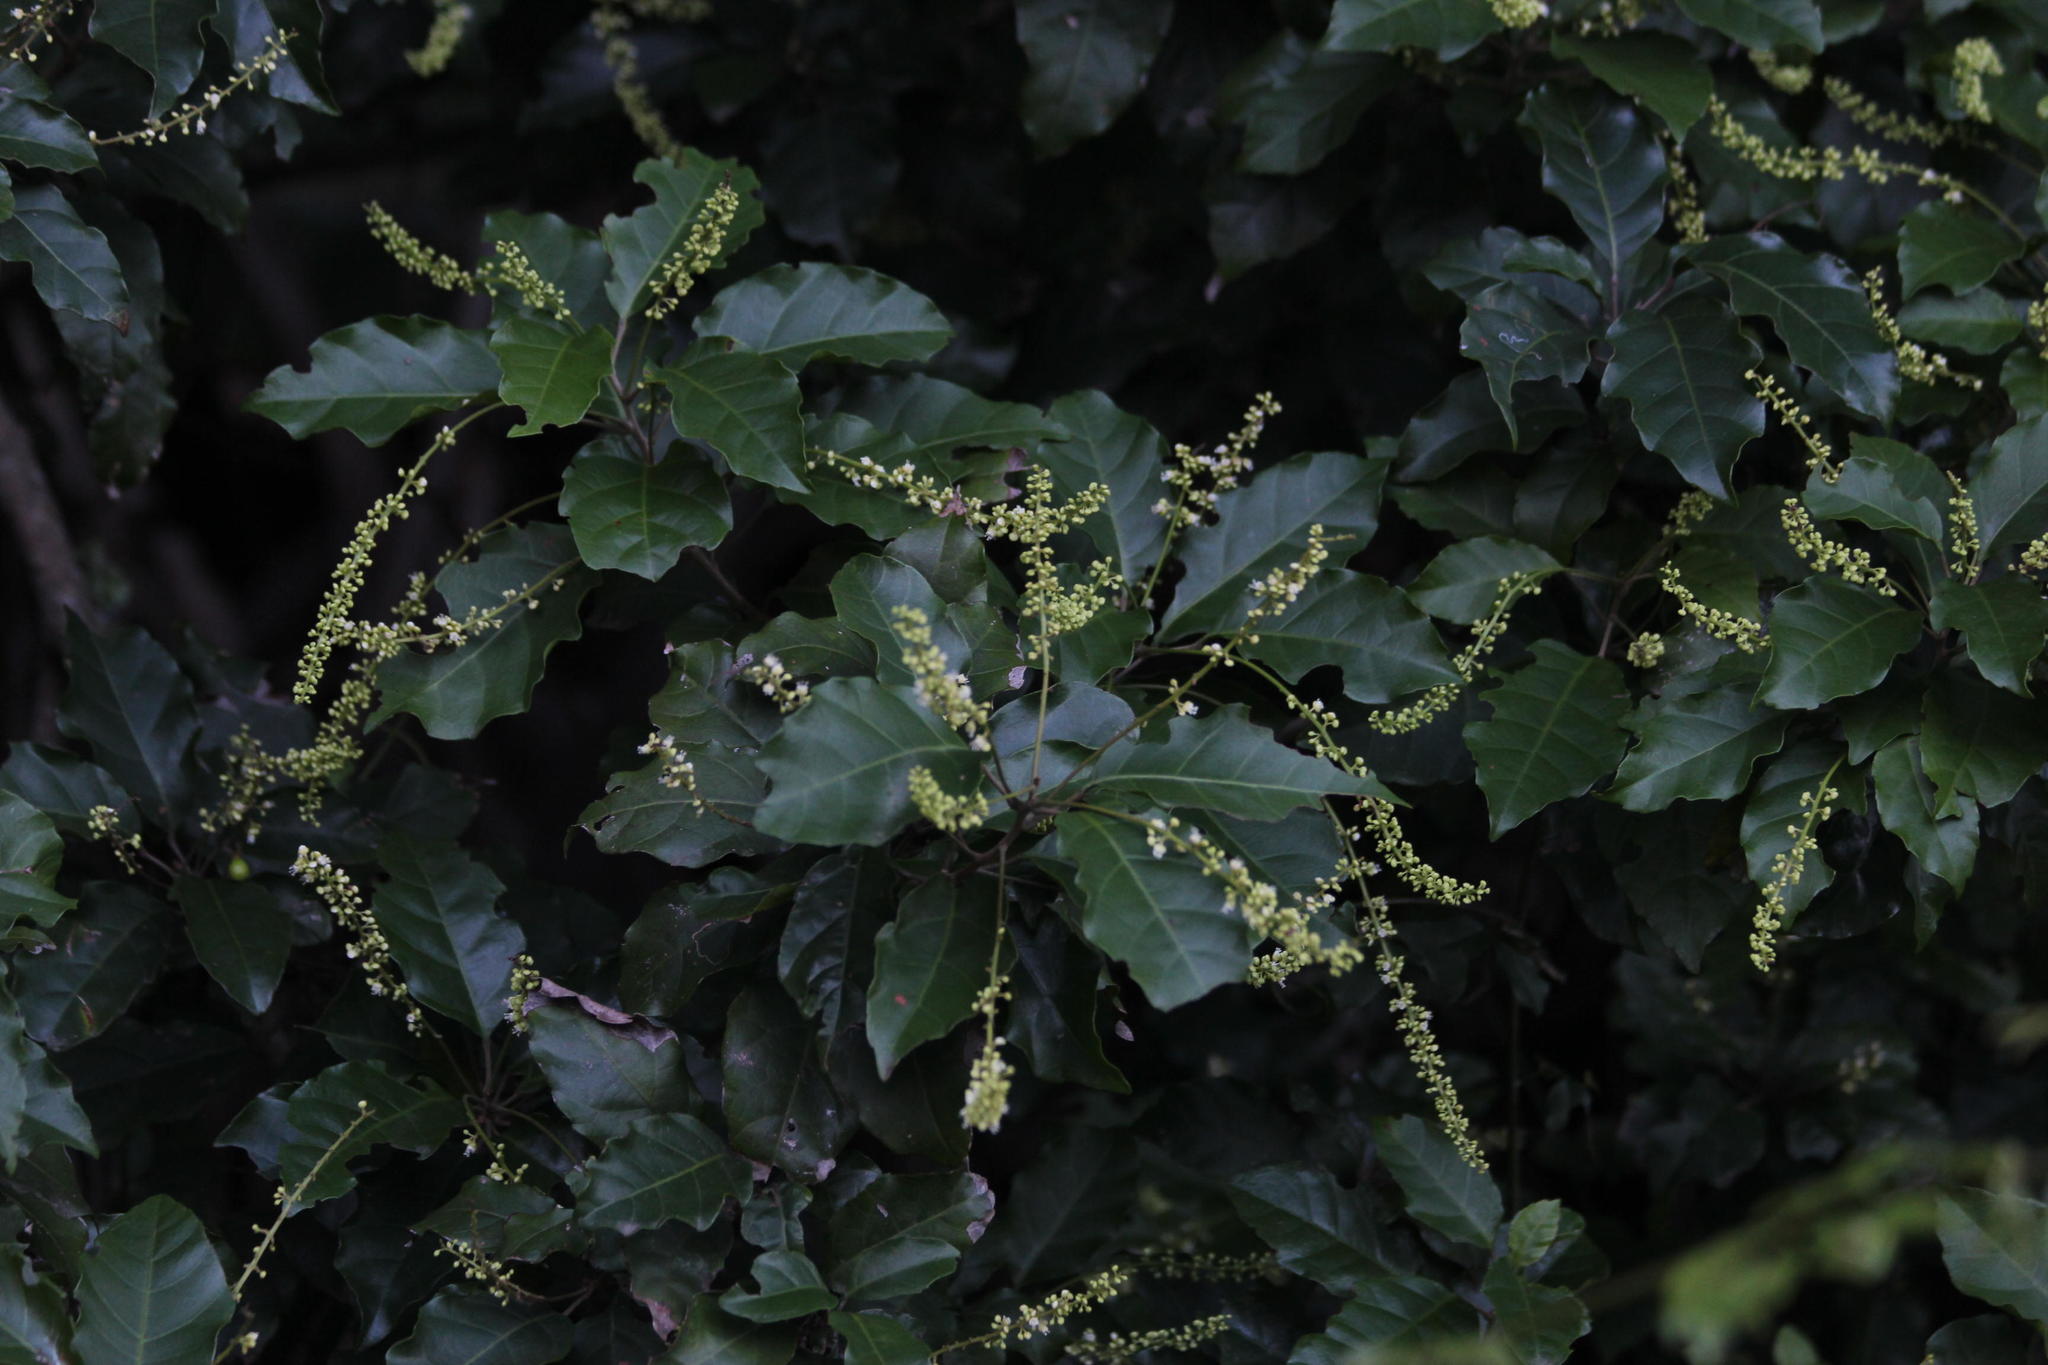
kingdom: Plantae
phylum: Tracheophyta
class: Magnoliopsida
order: Sapindales
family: Sapindaceae
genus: Allophylus
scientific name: Allophylus dregeanus
